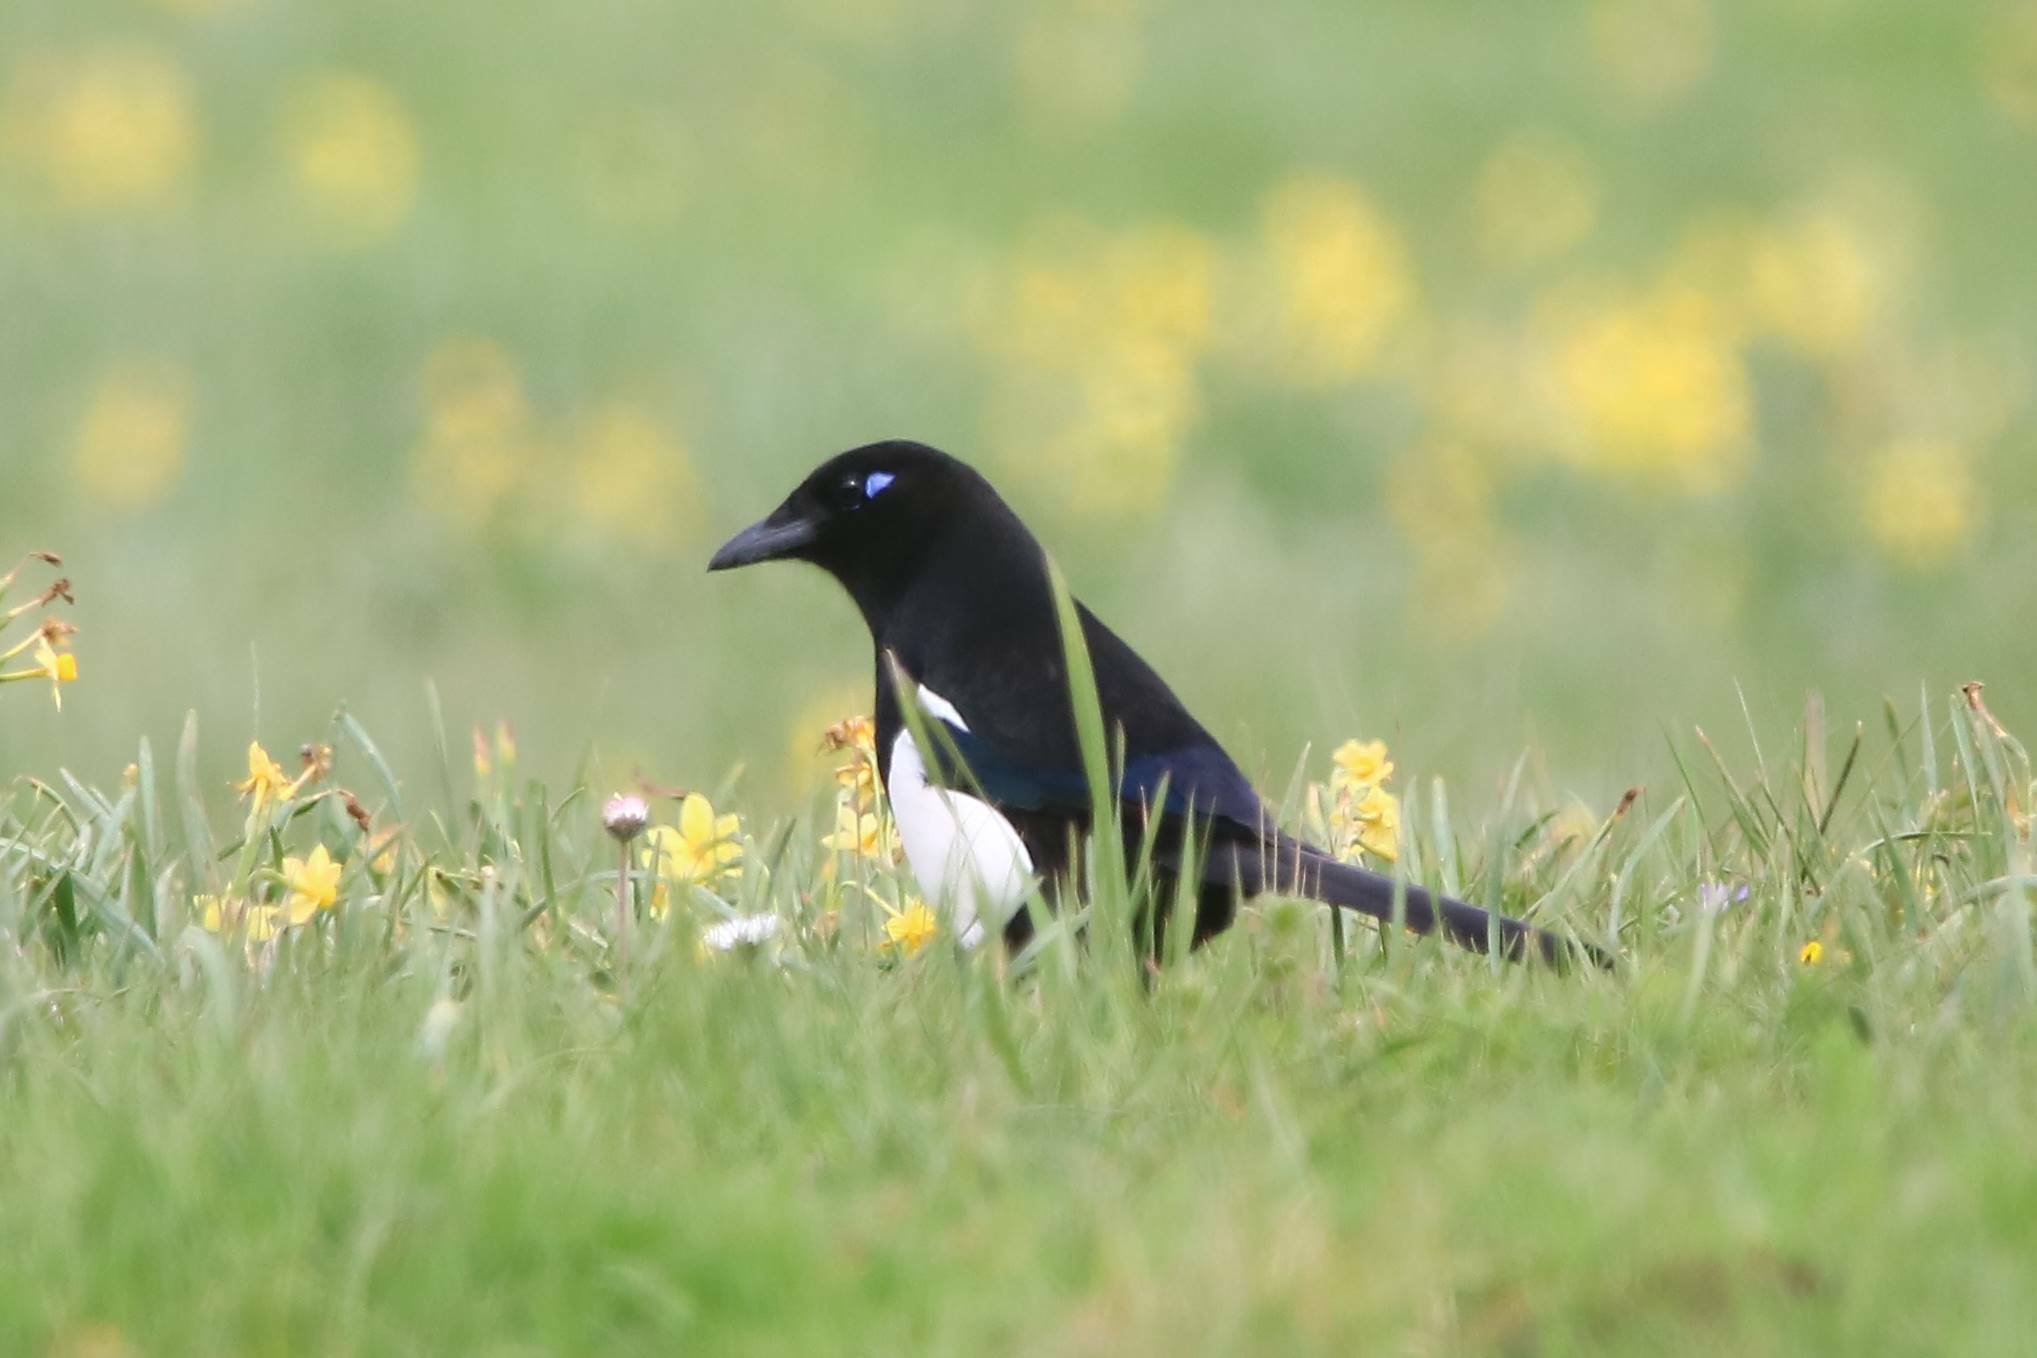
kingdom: Animalia
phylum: Chordata
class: Aves
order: Passeriformes
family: Corvidae
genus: Pica
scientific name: Pica mauritanica
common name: Maghreb magpie
